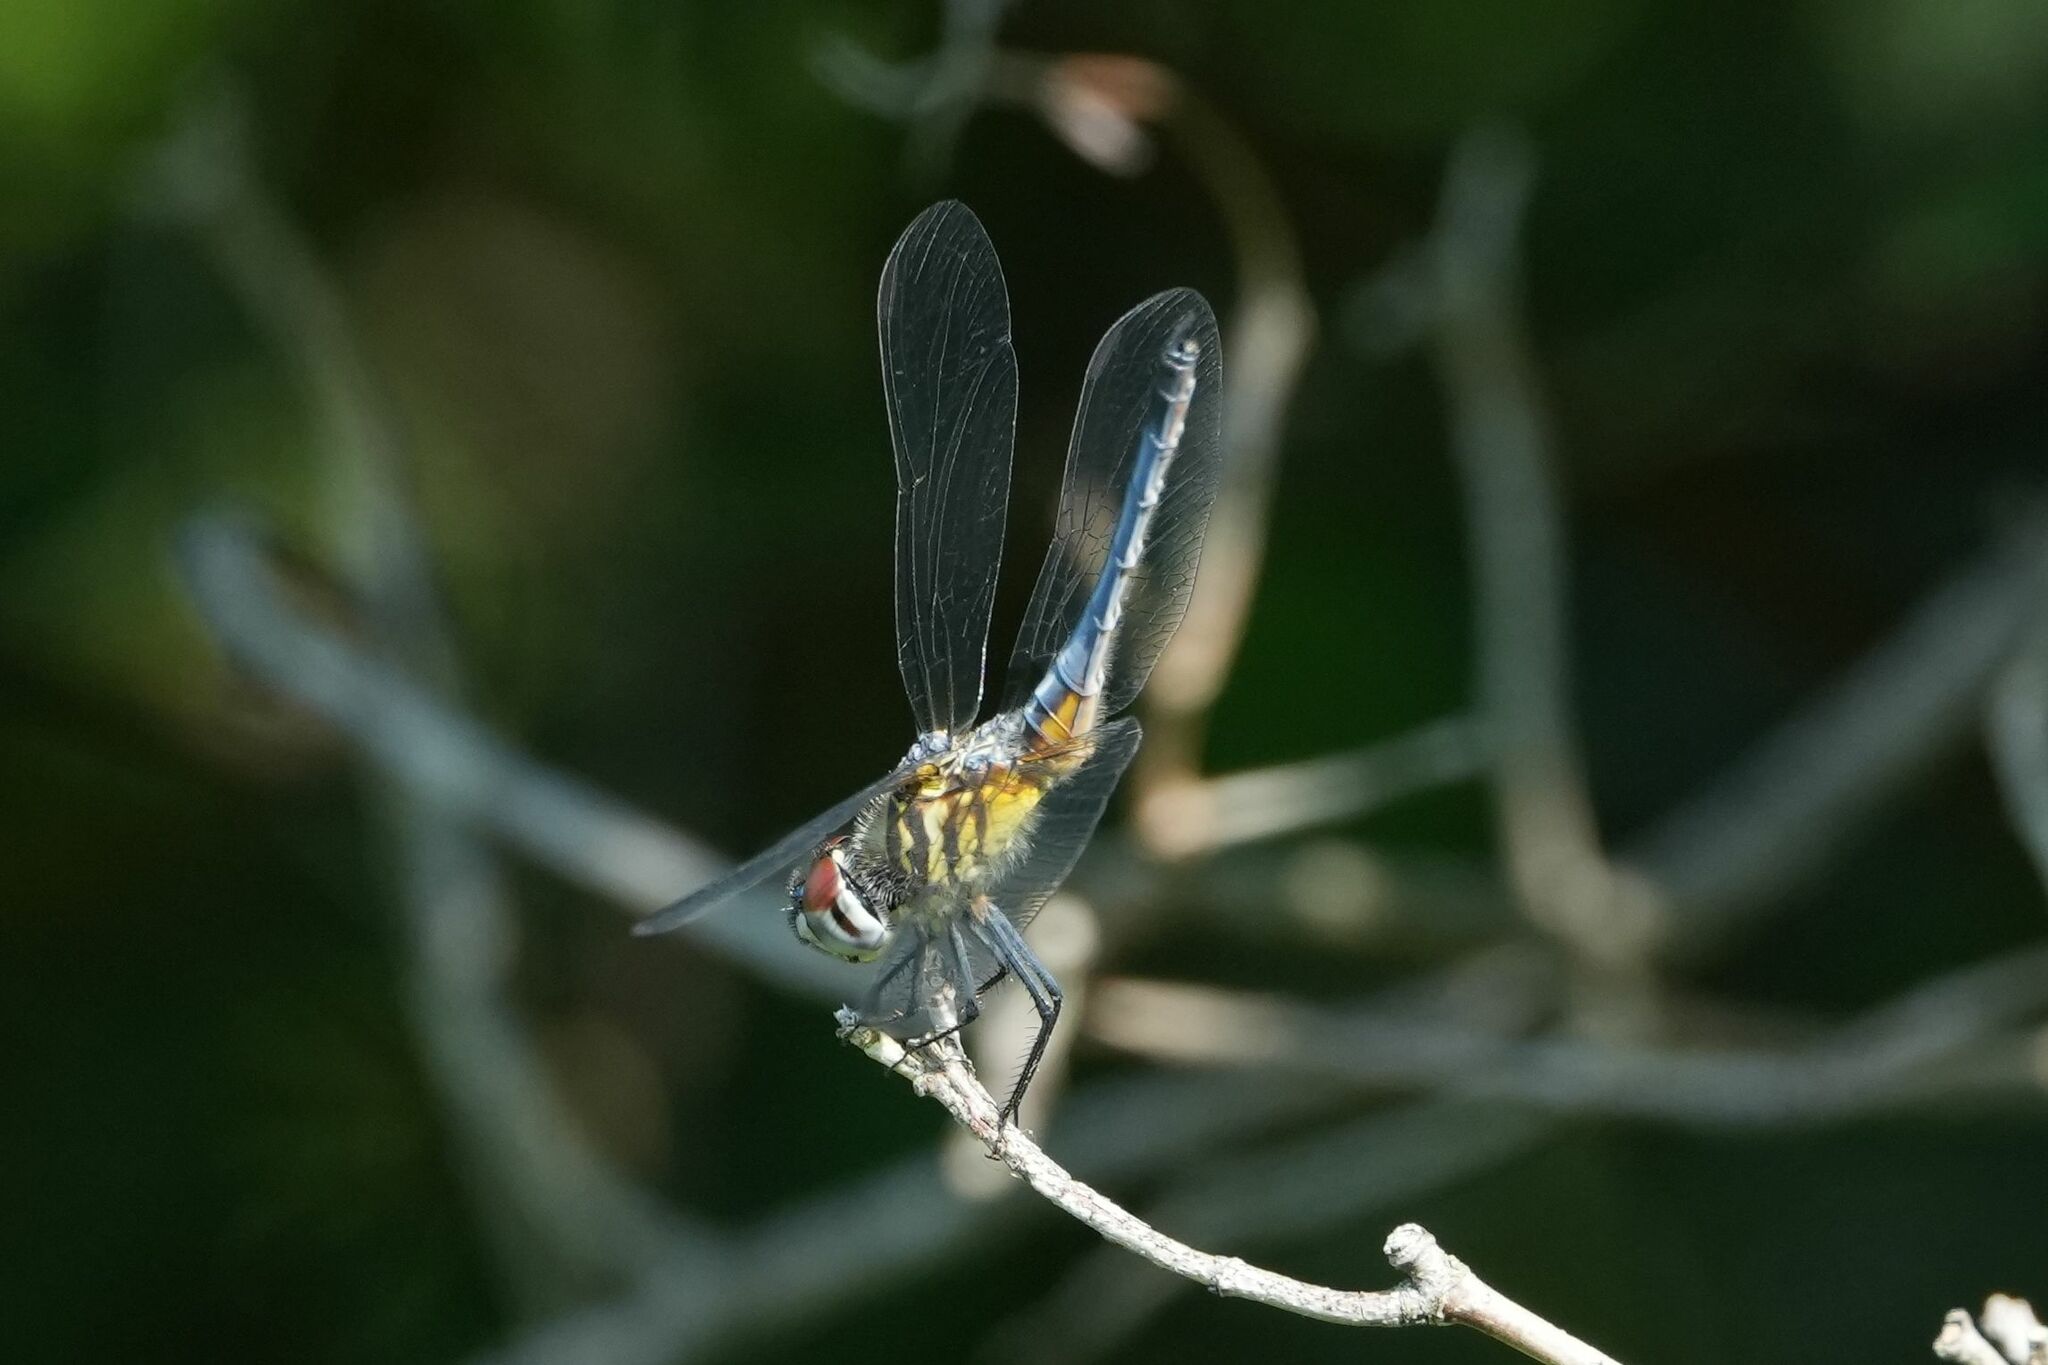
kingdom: Animalia
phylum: Arthropoda
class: Insecta
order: Odonata
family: Libellulidae
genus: Pachydiplax
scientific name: Pachydiplax longipennis
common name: Blue dasher
